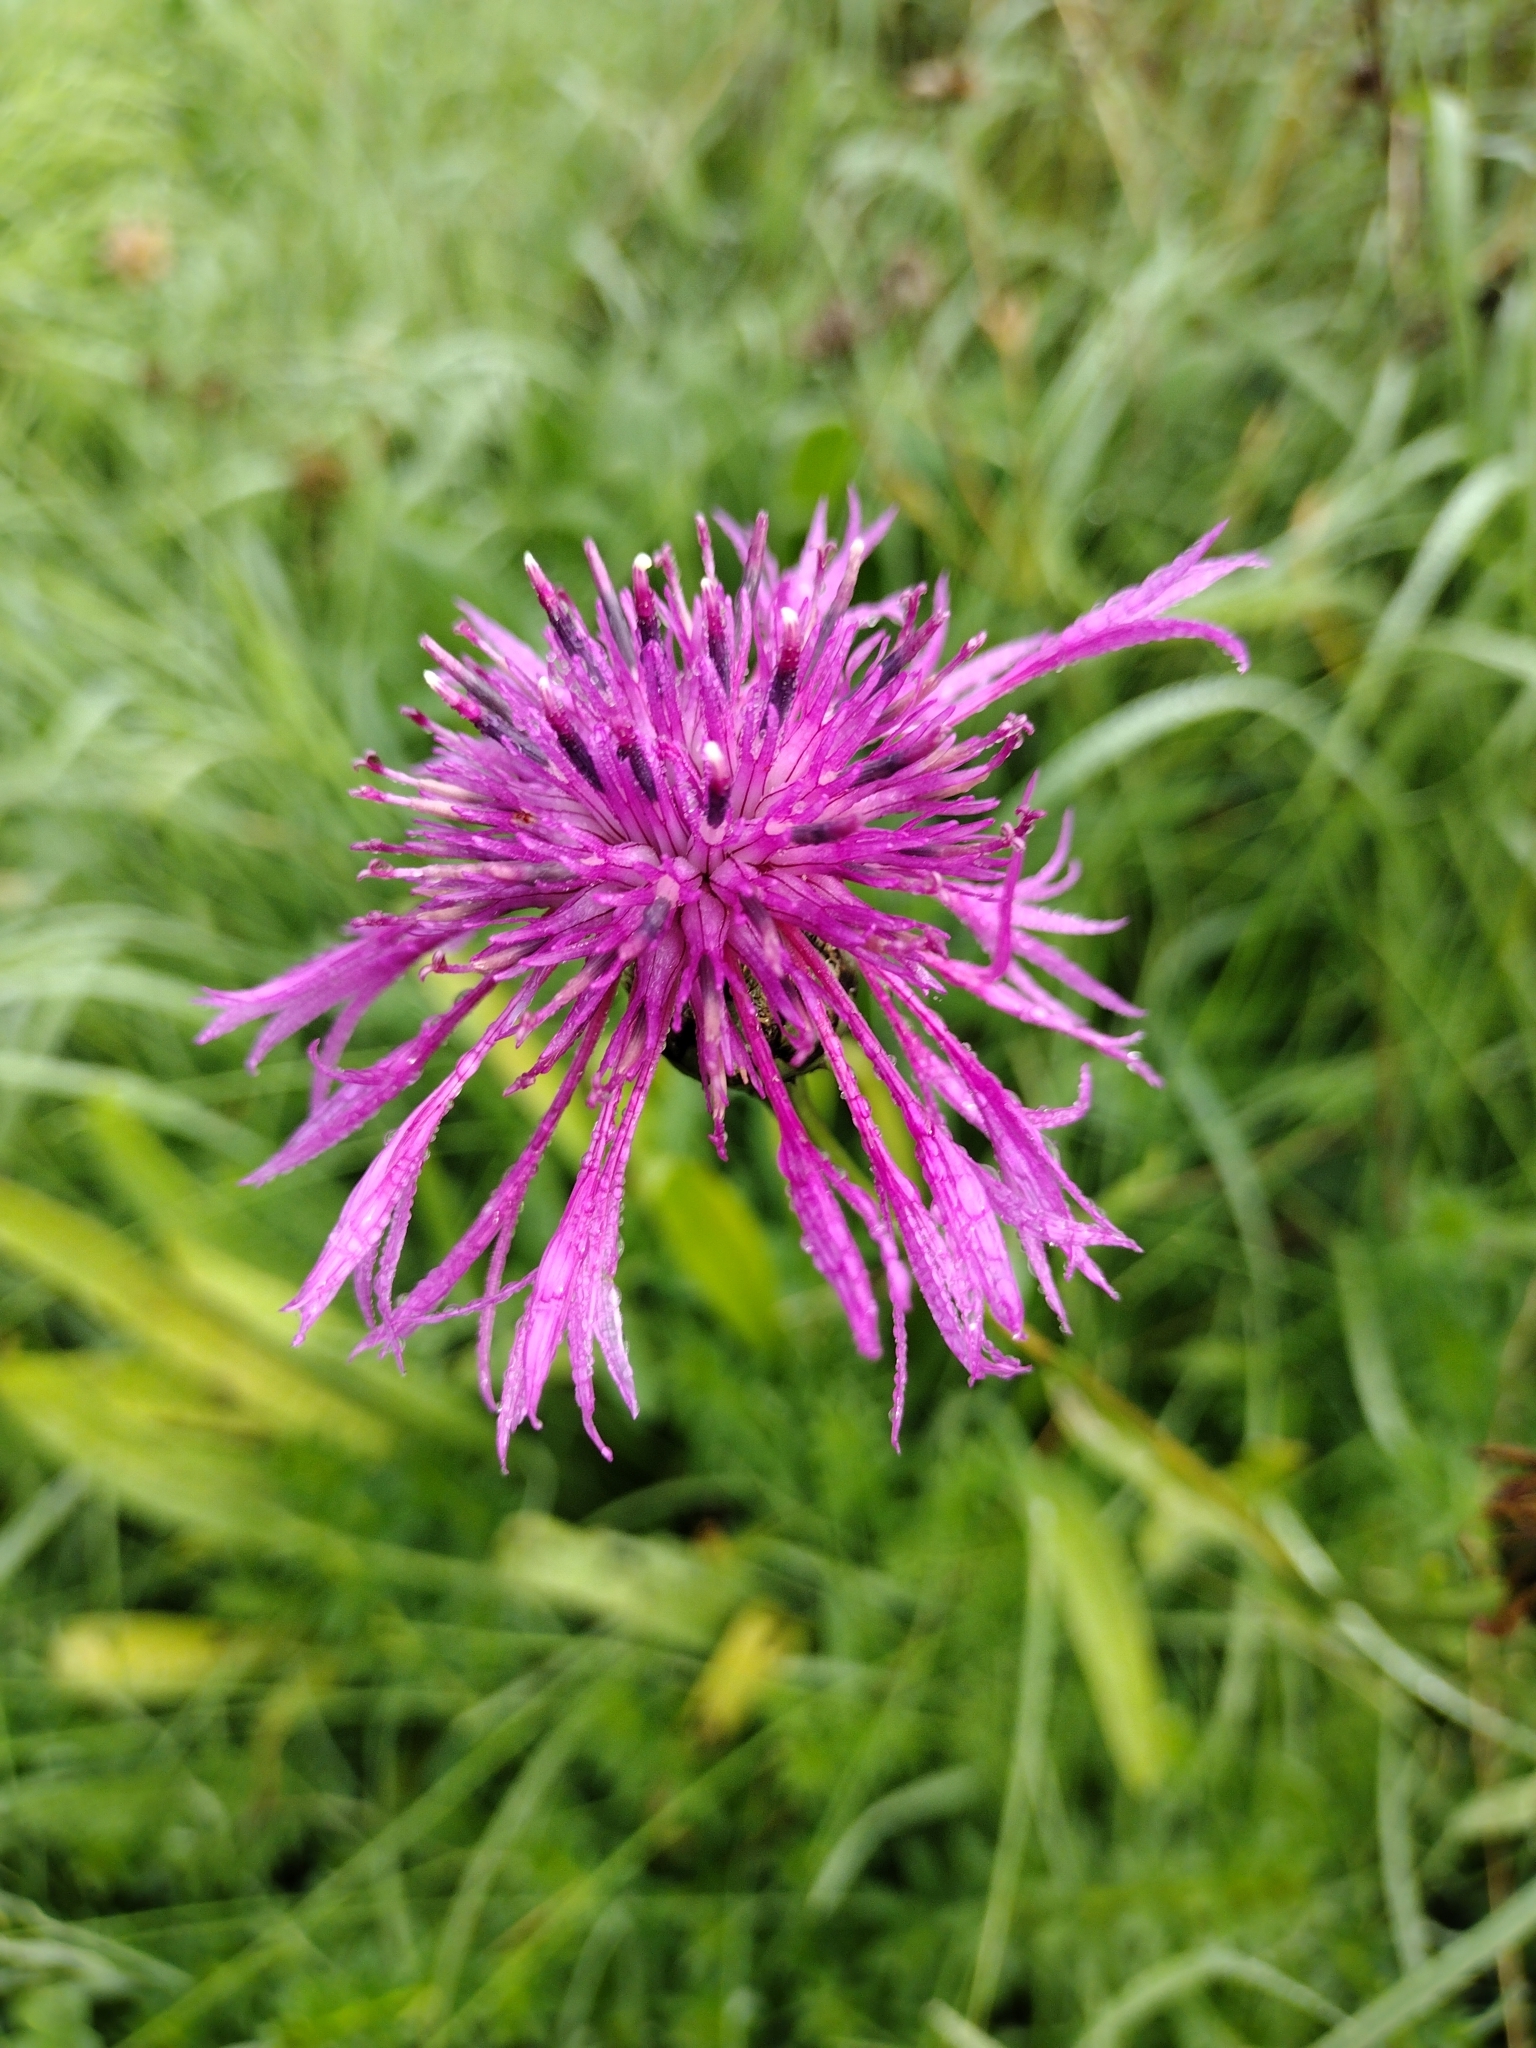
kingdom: Plantae
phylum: Tracheophyta
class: Magnoliopsida
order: Asterales
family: Asteraceae
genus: Centaurea
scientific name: Centaurea scabiosa
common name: Greater knapweed
